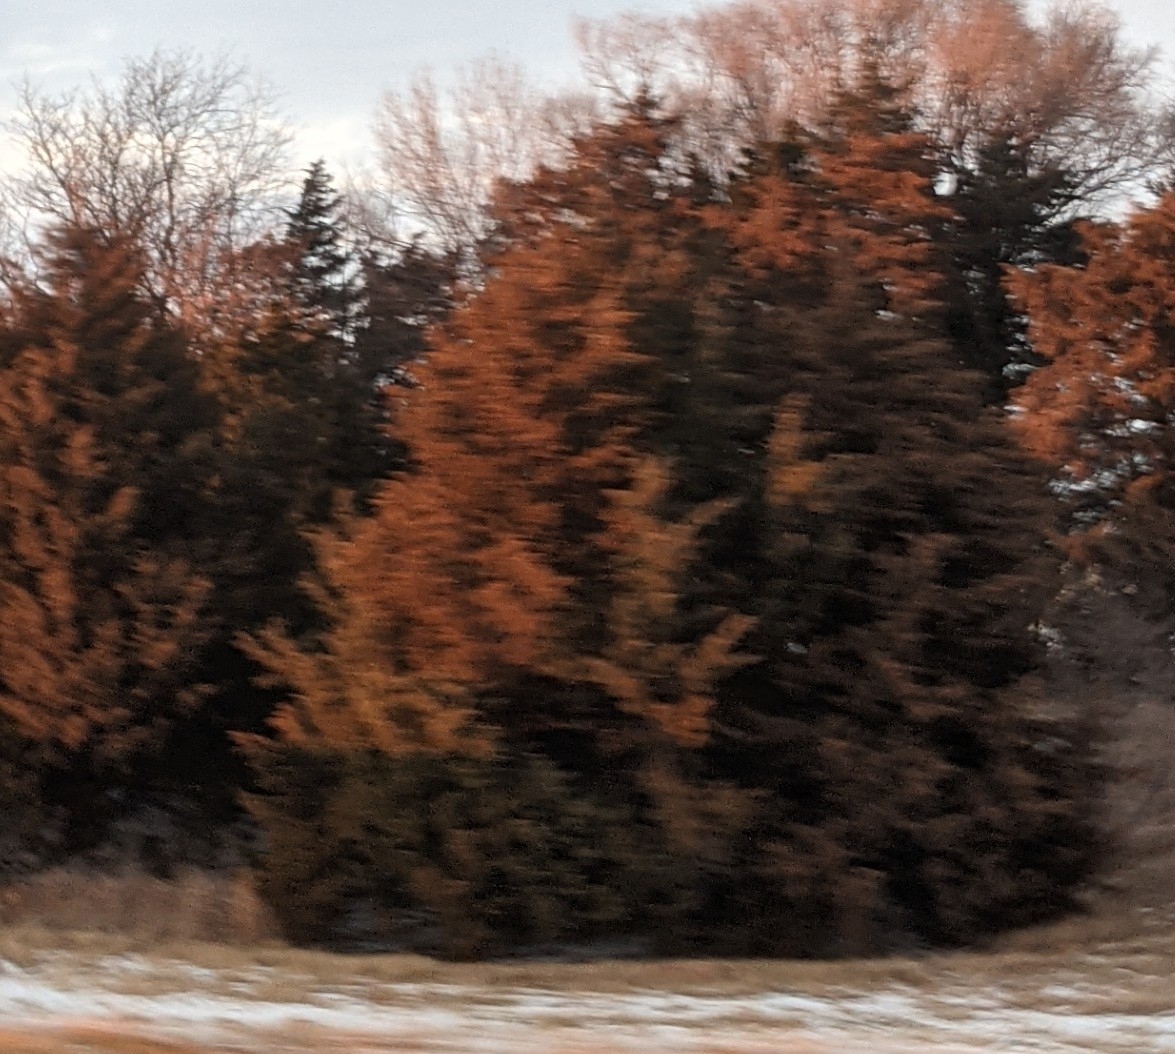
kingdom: Plantae
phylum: Tracheophyta
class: Pinopsida
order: Pinales
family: Cupressaceae
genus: Juniperus
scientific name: Juniperus virginiana
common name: Red juniper
